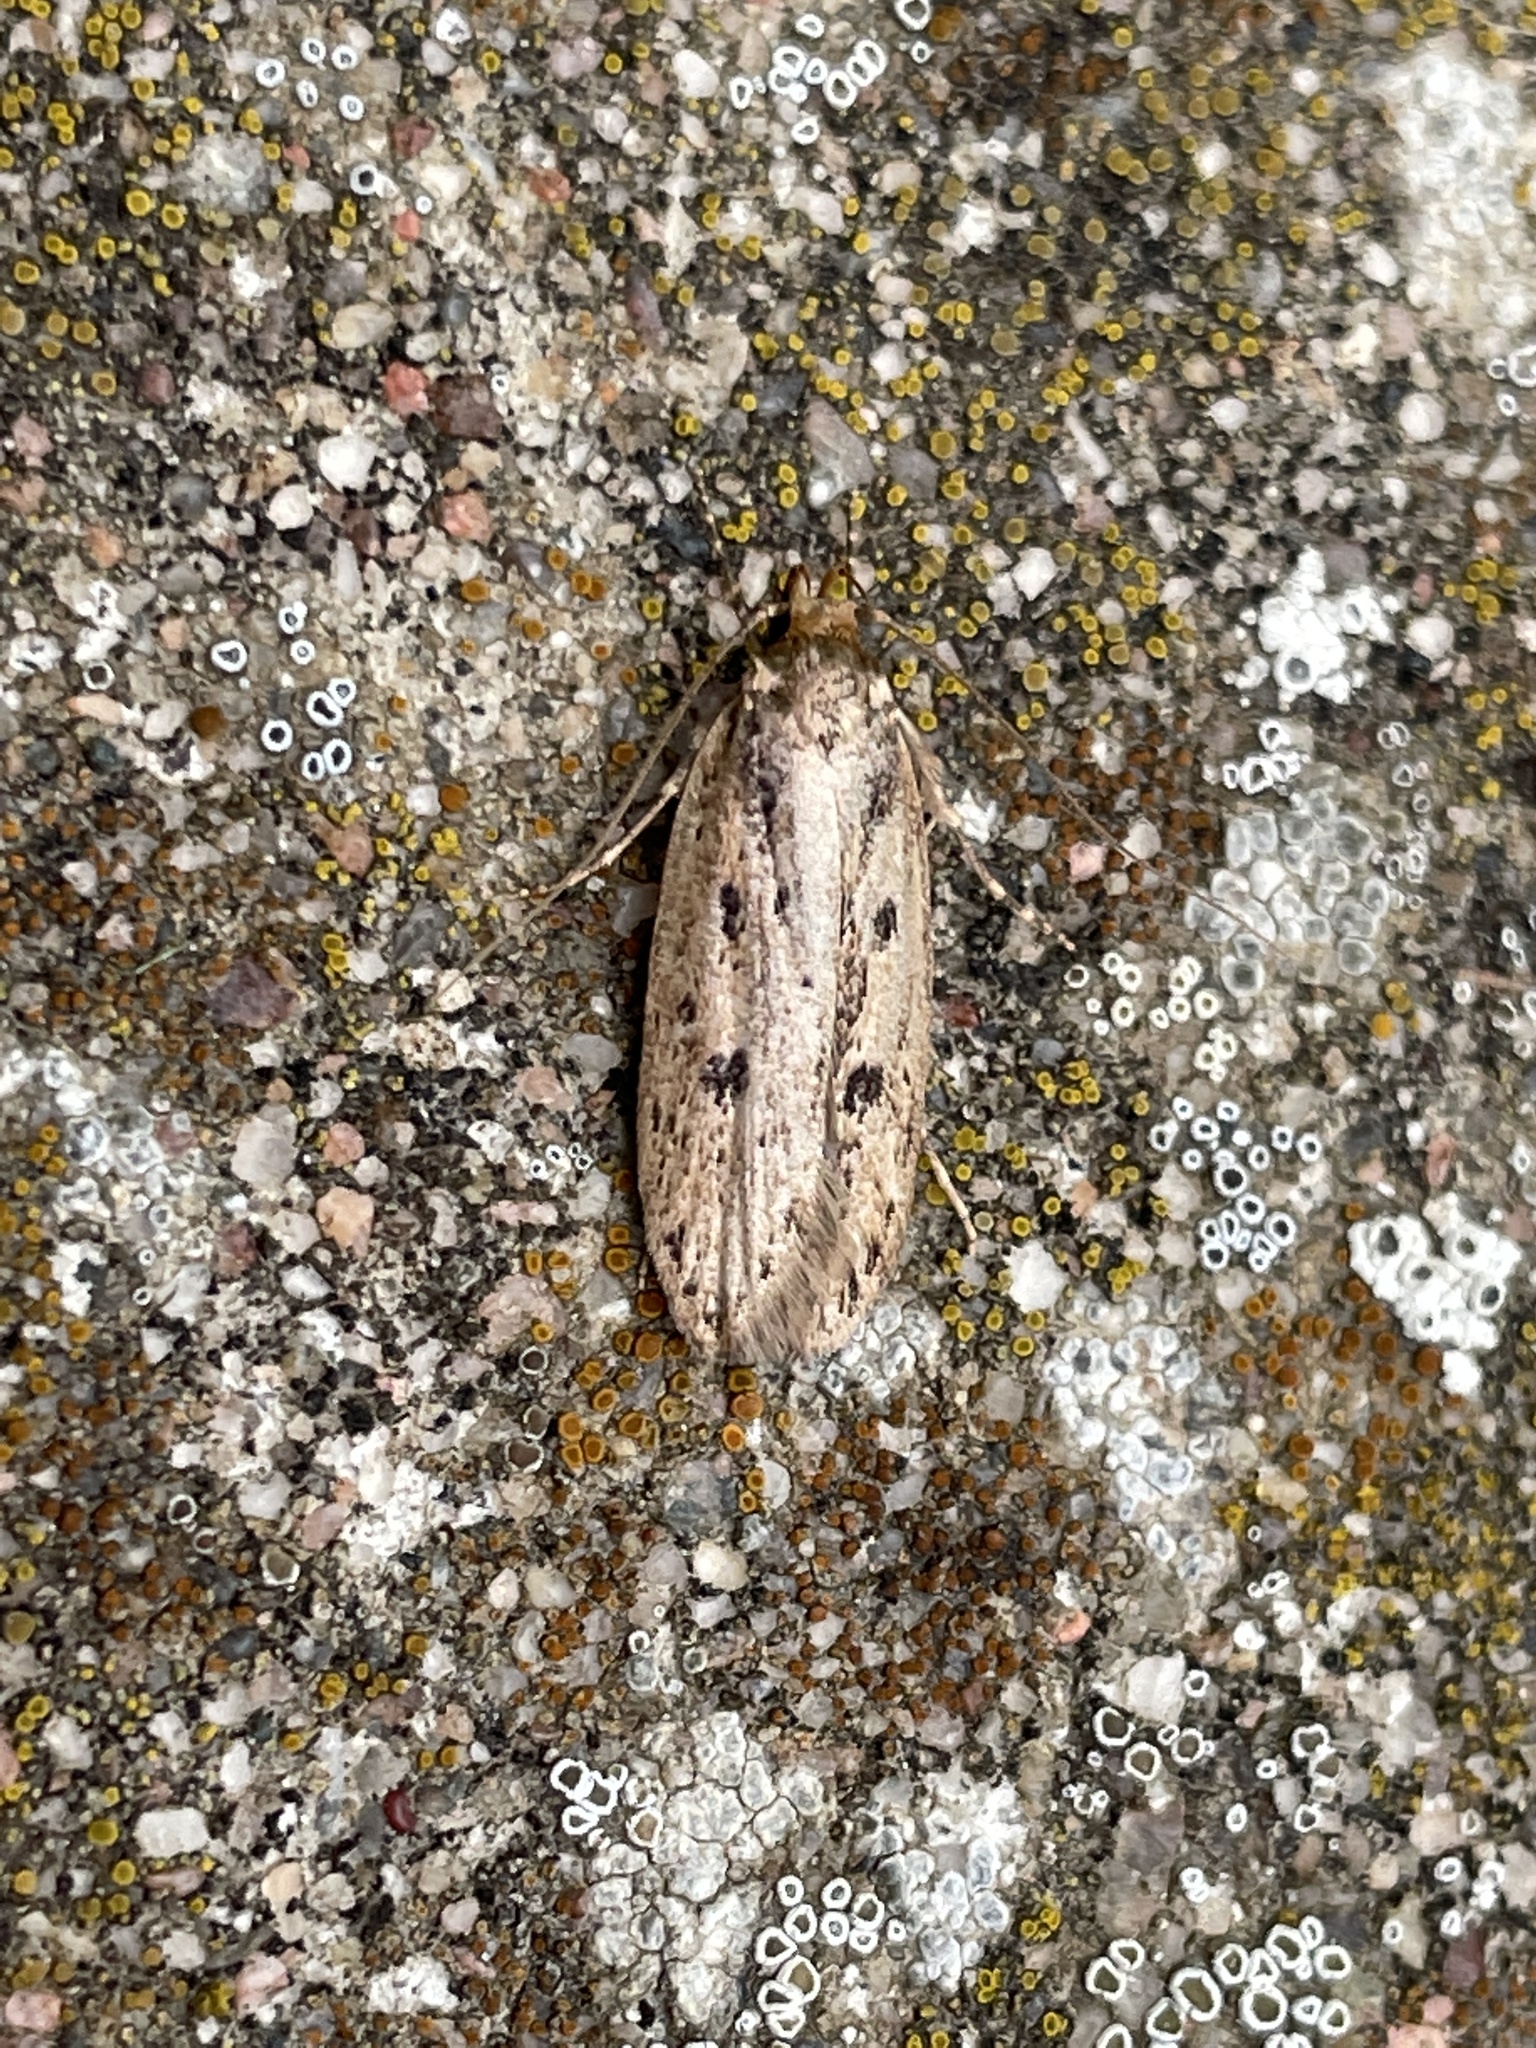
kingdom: Animalia
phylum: Arthropoda
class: Insecta
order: Lepidoptera
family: Oecophoridae
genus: Hofmannophila
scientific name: Hofmannophila pseudospretella
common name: Brown house moth
